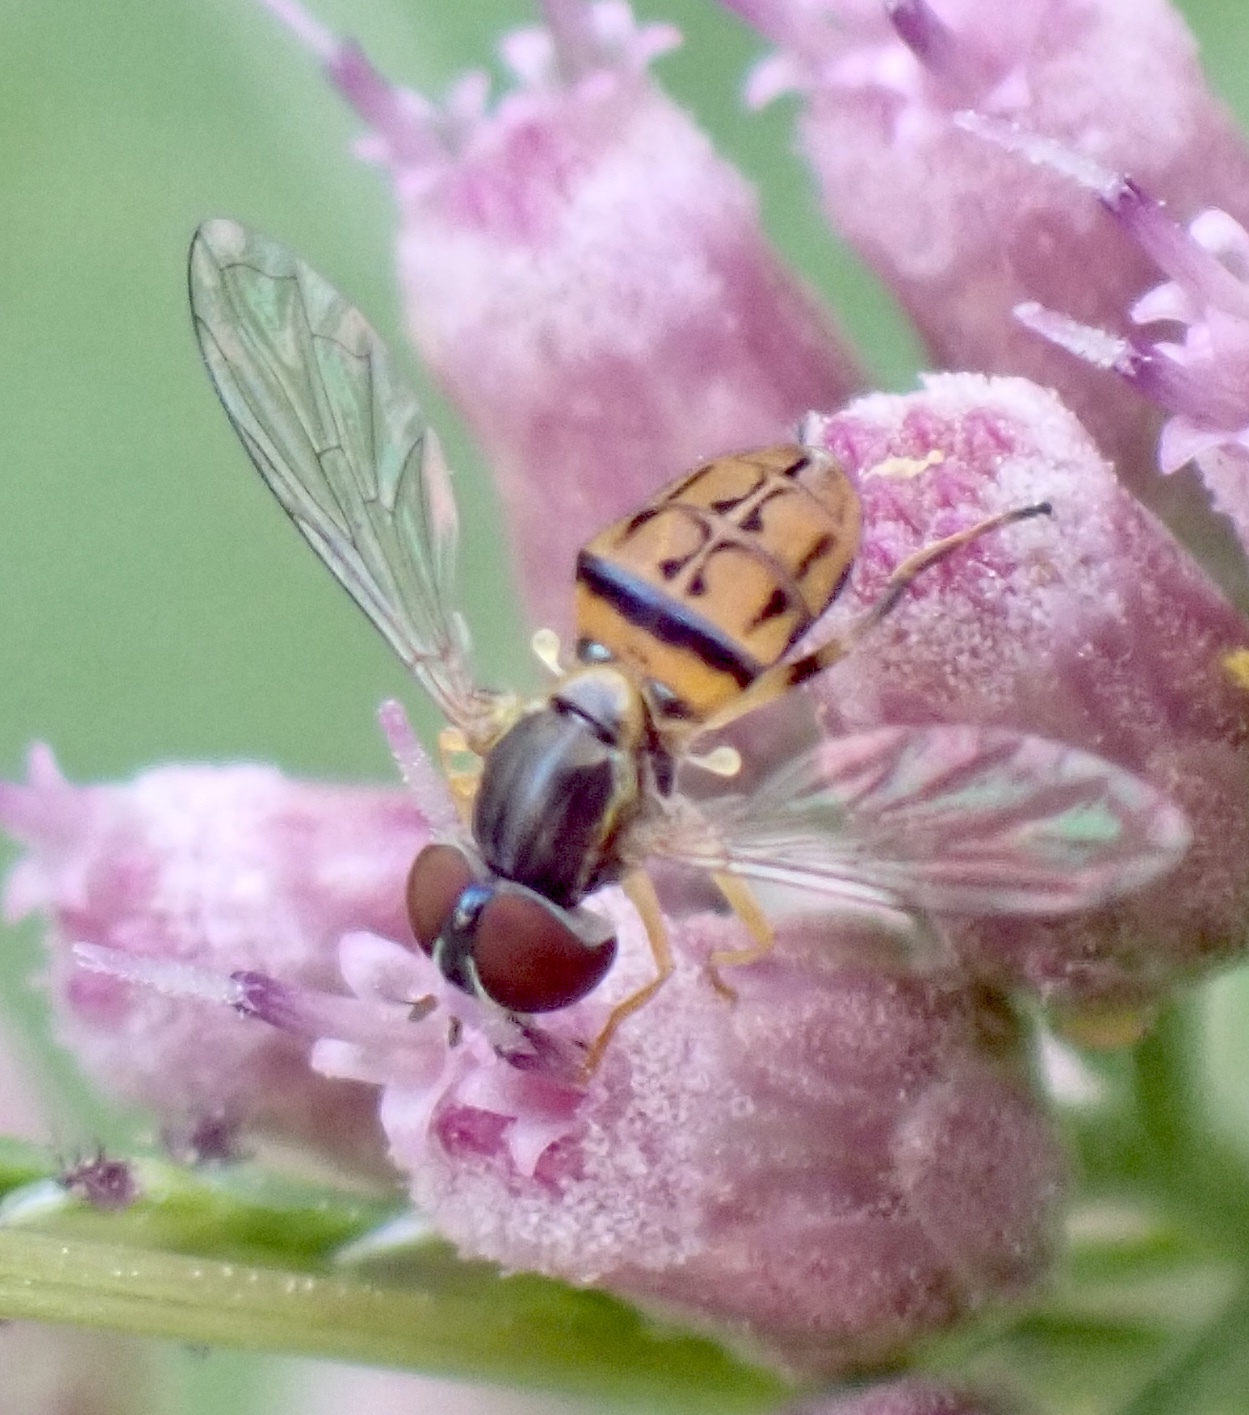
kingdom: Animalia
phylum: Arthropoda
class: Insecta
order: Diptera
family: Syrphidae
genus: Toxomerus
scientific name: Toxomerus boscii
